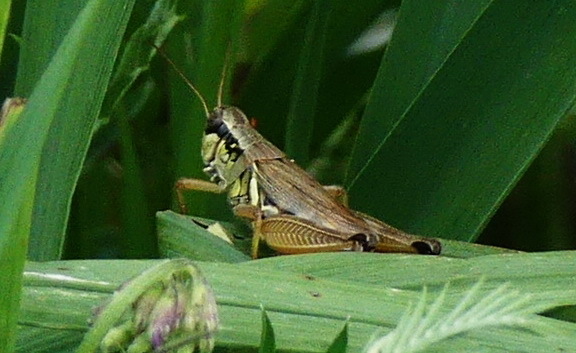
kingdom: Animalia
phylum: Arthropoda
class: Insecta
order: Orthoptera
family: Acrididae
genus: Melanoplus
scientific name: Melanoplus femurrubrum
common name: Red-legged grasshopper
